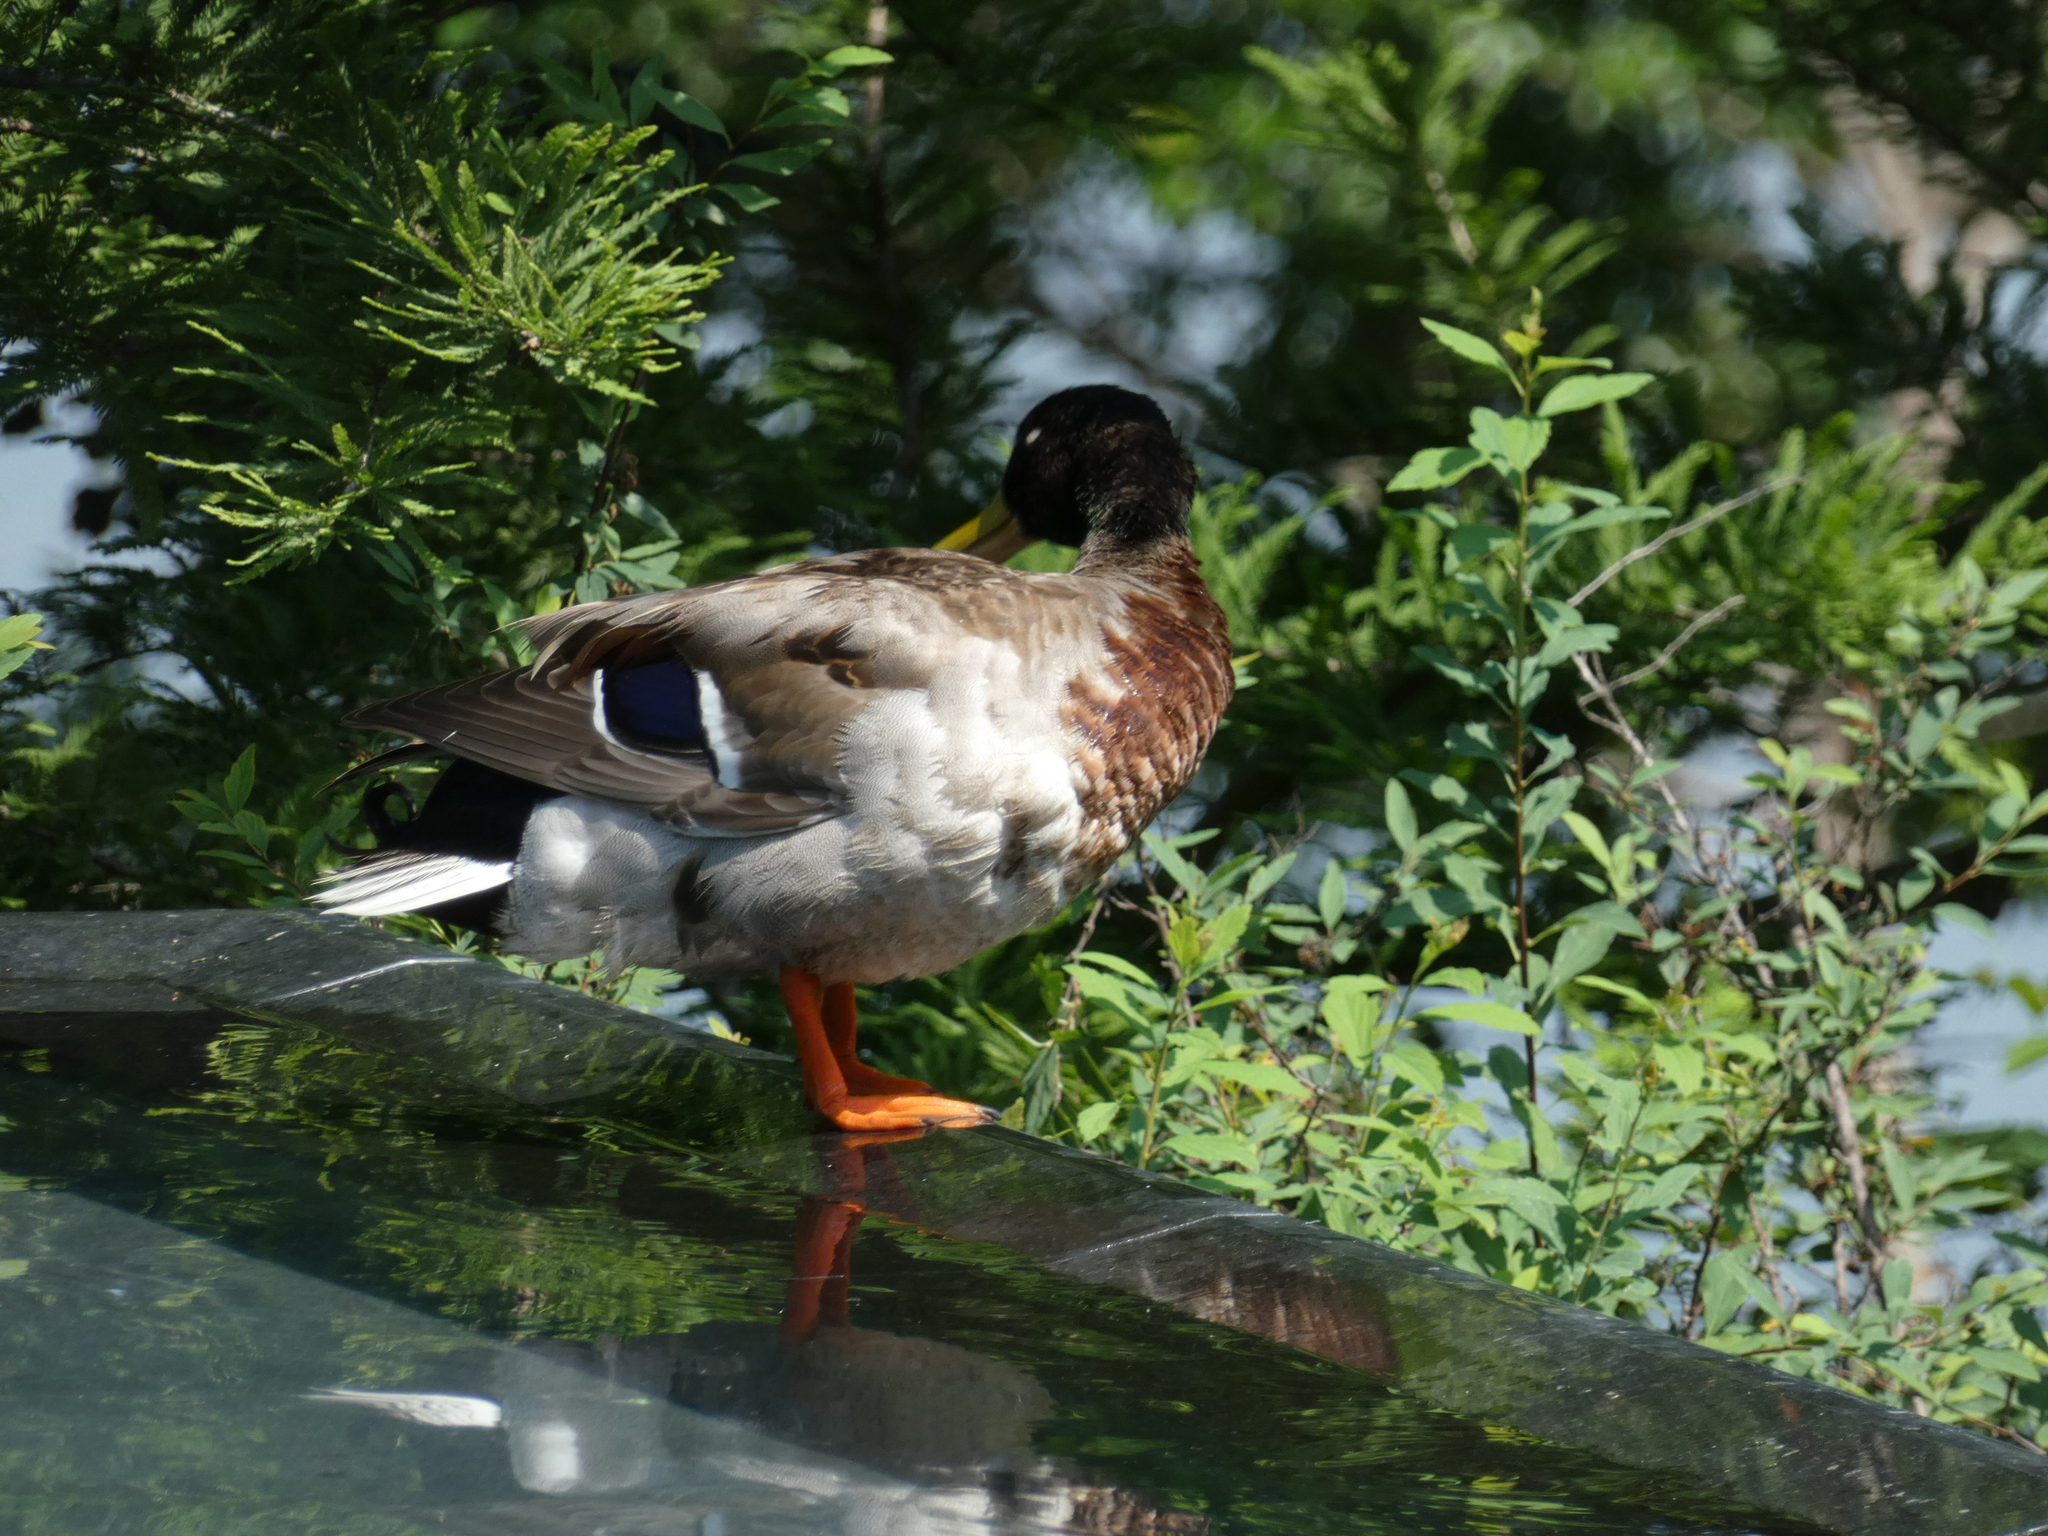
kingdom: Animalia
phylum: Chordata
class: Aves
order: Anseriformes
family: Anatidae
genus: Anas
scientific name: Anas platyrhynchos
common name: Mallard
